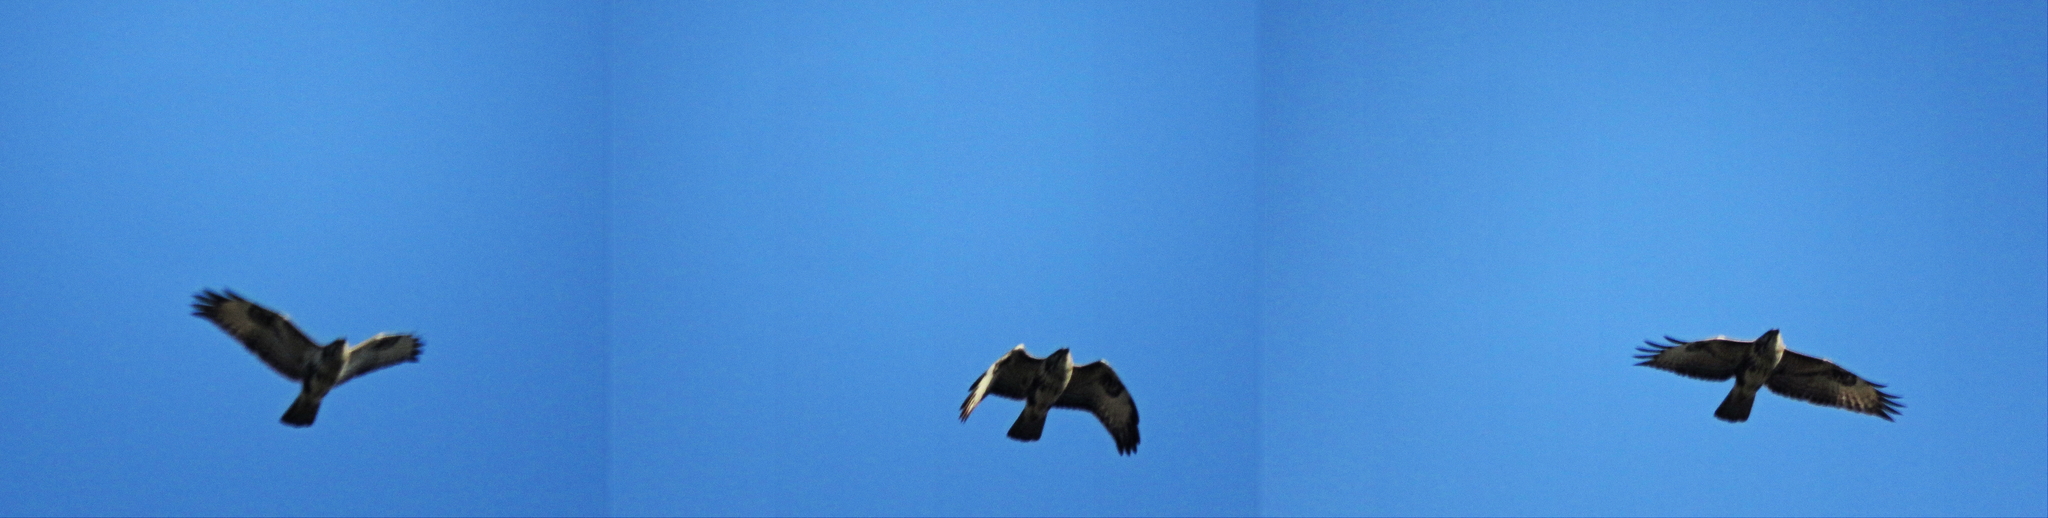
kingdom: Animalia
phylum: Chordata
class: Aves
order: Accipitriformes
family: Accipitridae
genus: Buteo
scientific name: Buteo buteo
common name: Common buzzard
